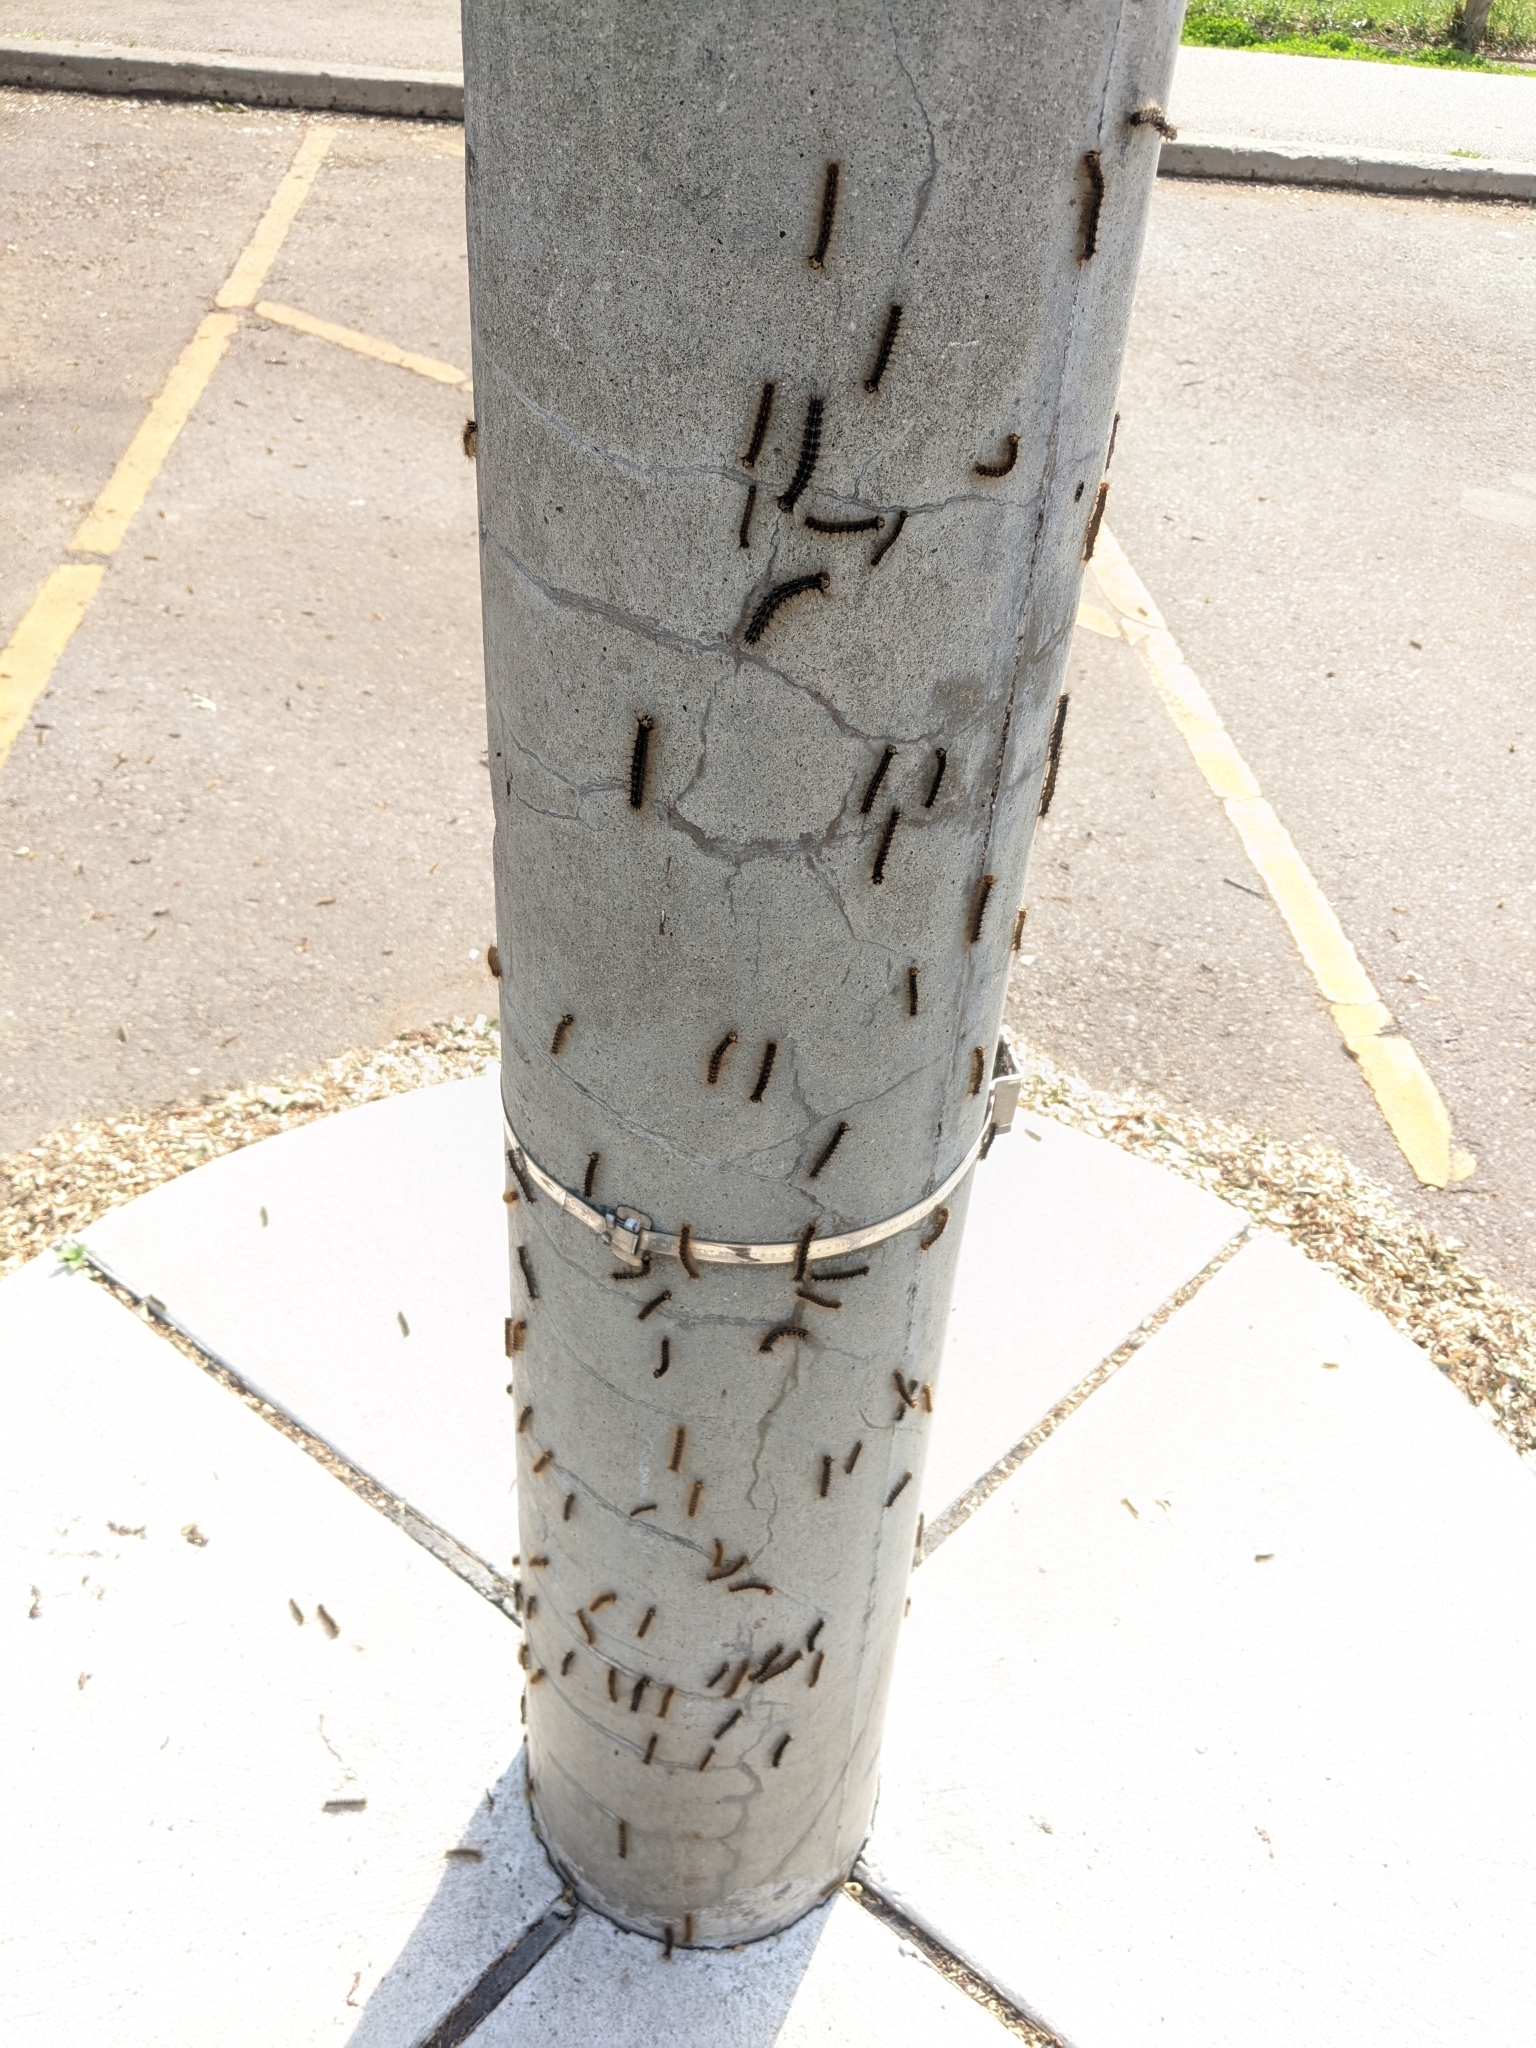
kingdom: Animalia
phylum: Arthropoda
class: Insecta
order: Lepidoptera
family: Erebidae
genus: Lymantria
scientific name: Lymantria dispar
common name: Gypsy moth
